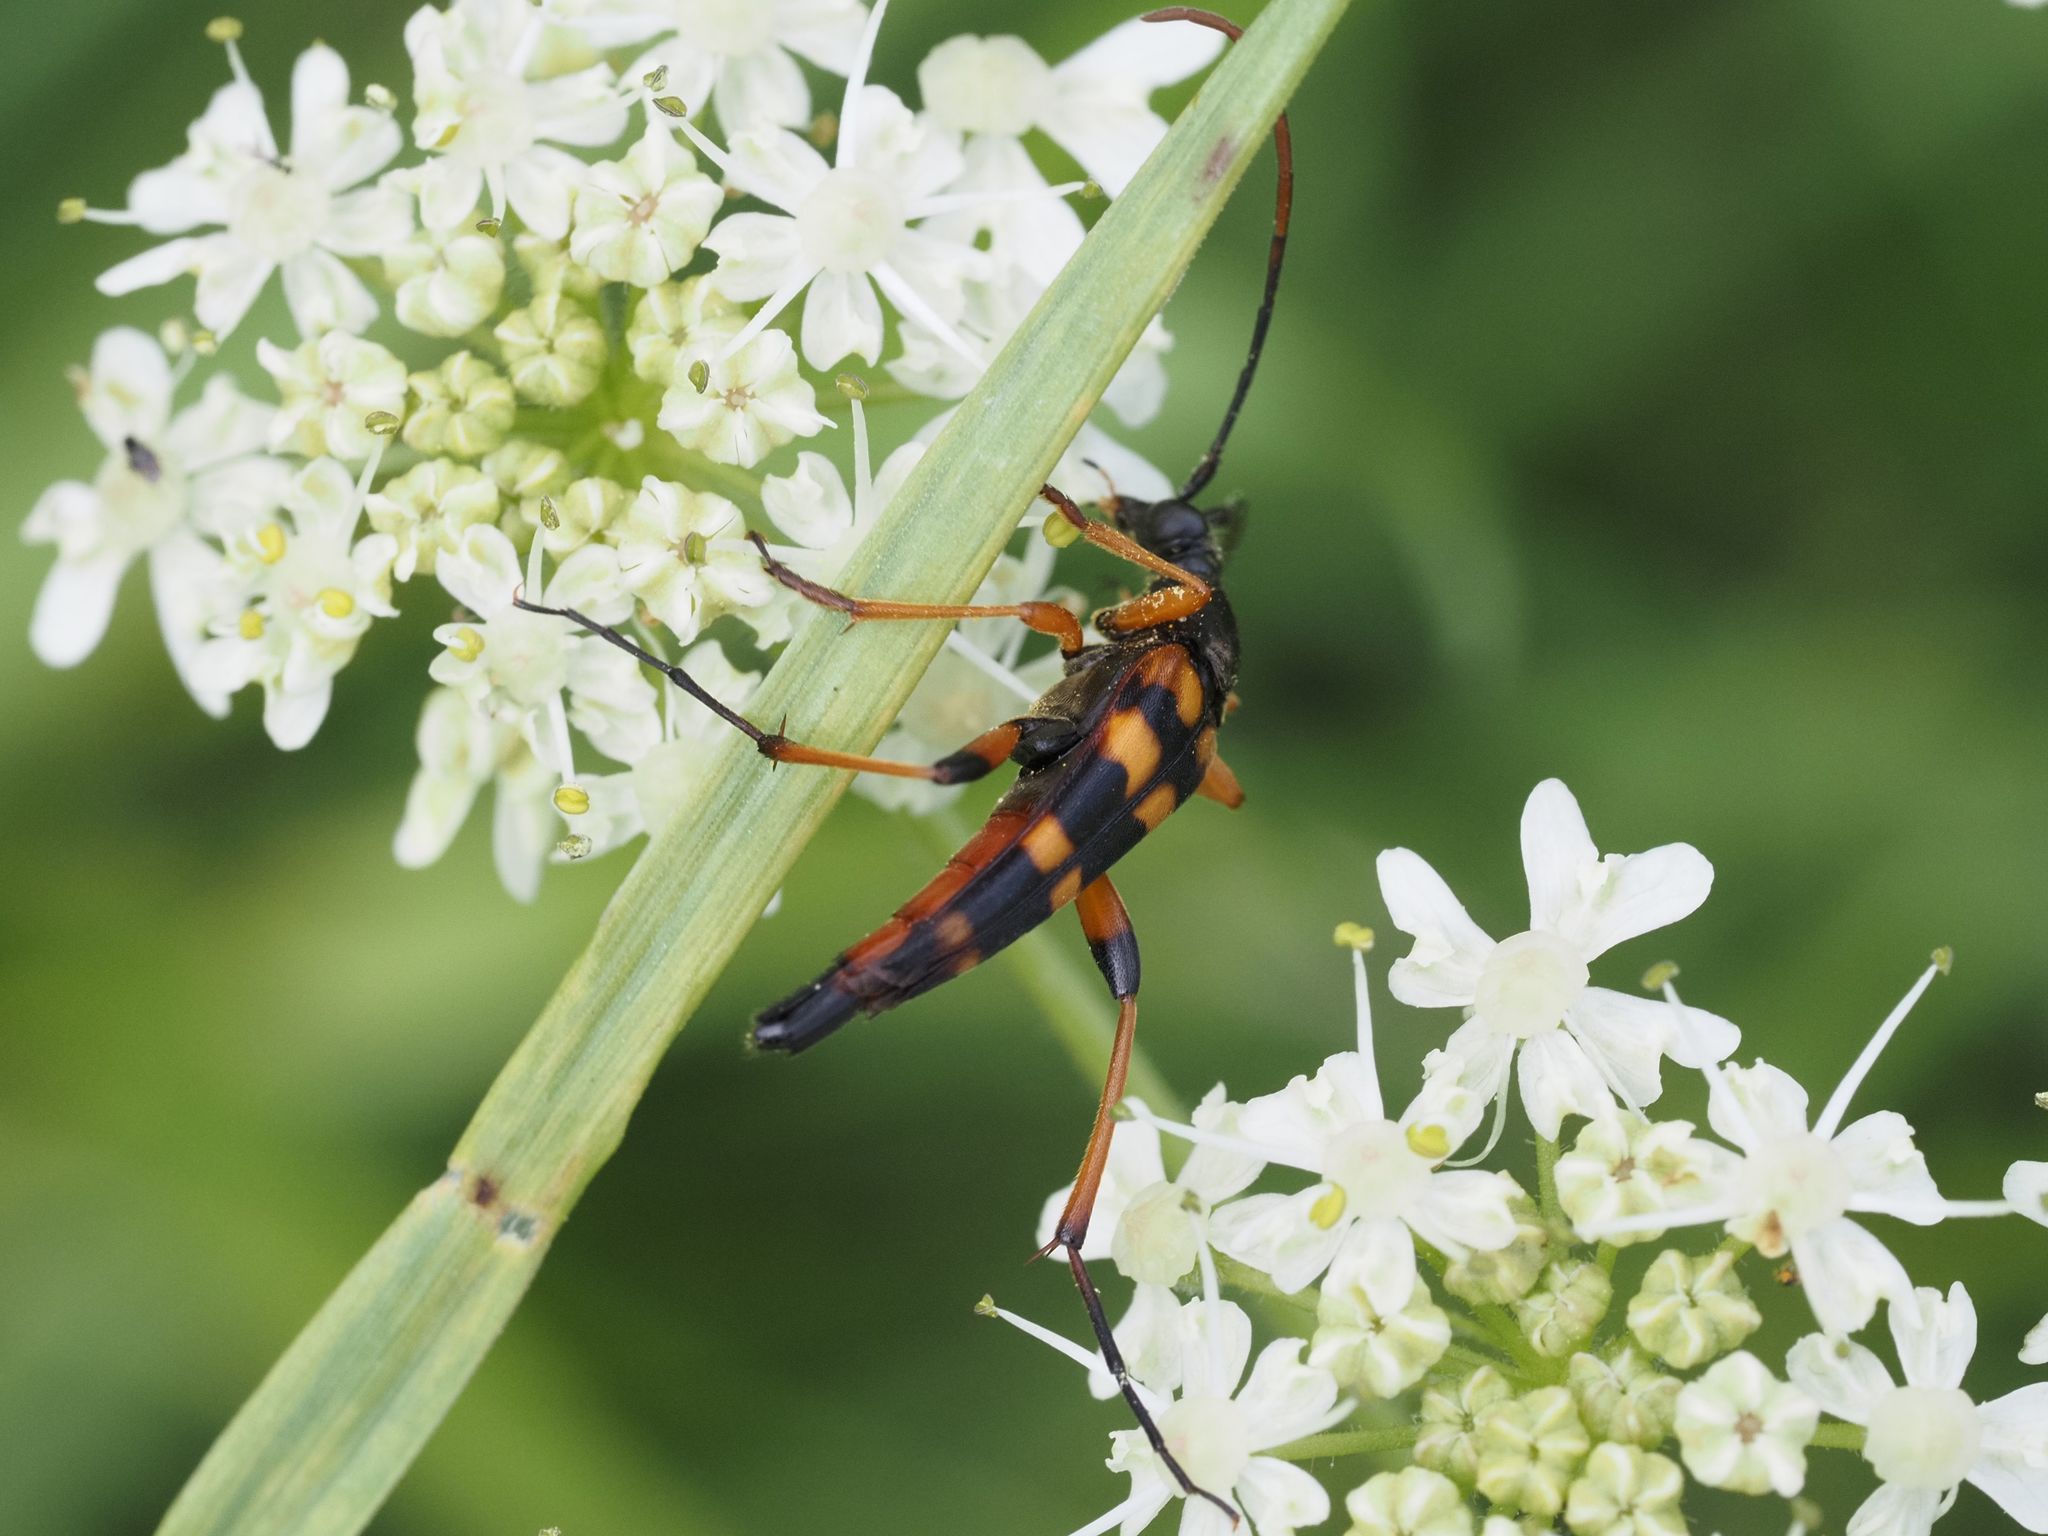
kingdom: Animalia
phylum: Arthropoda
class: Insecta
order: Coleoptera
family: Cerambycidae
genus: Strangalia
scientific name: Strangalia attenuata
